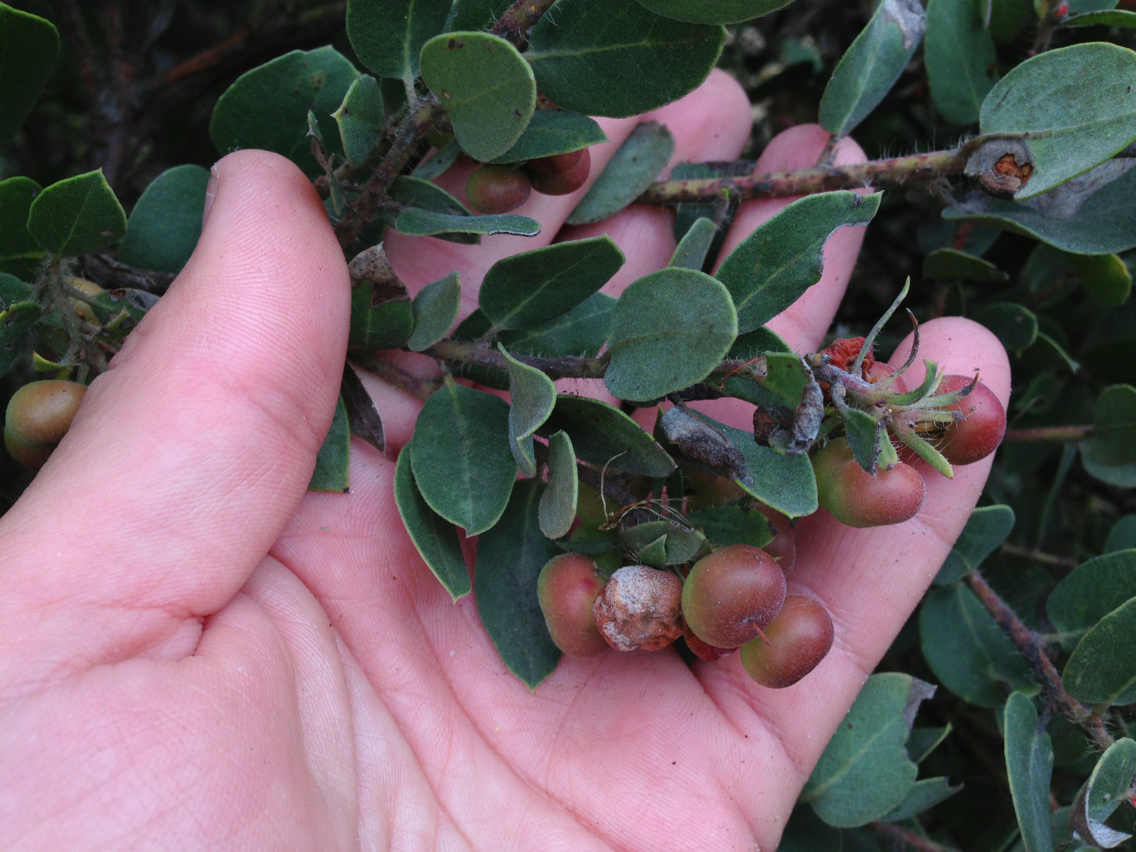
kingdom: Plantae
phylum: Tracheophyta
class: Magnoliopsida
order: Ericales
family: Ericaceae
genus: Arctostaphylos
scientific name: Arctostaphylos morroensis
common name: Morro manzanita
